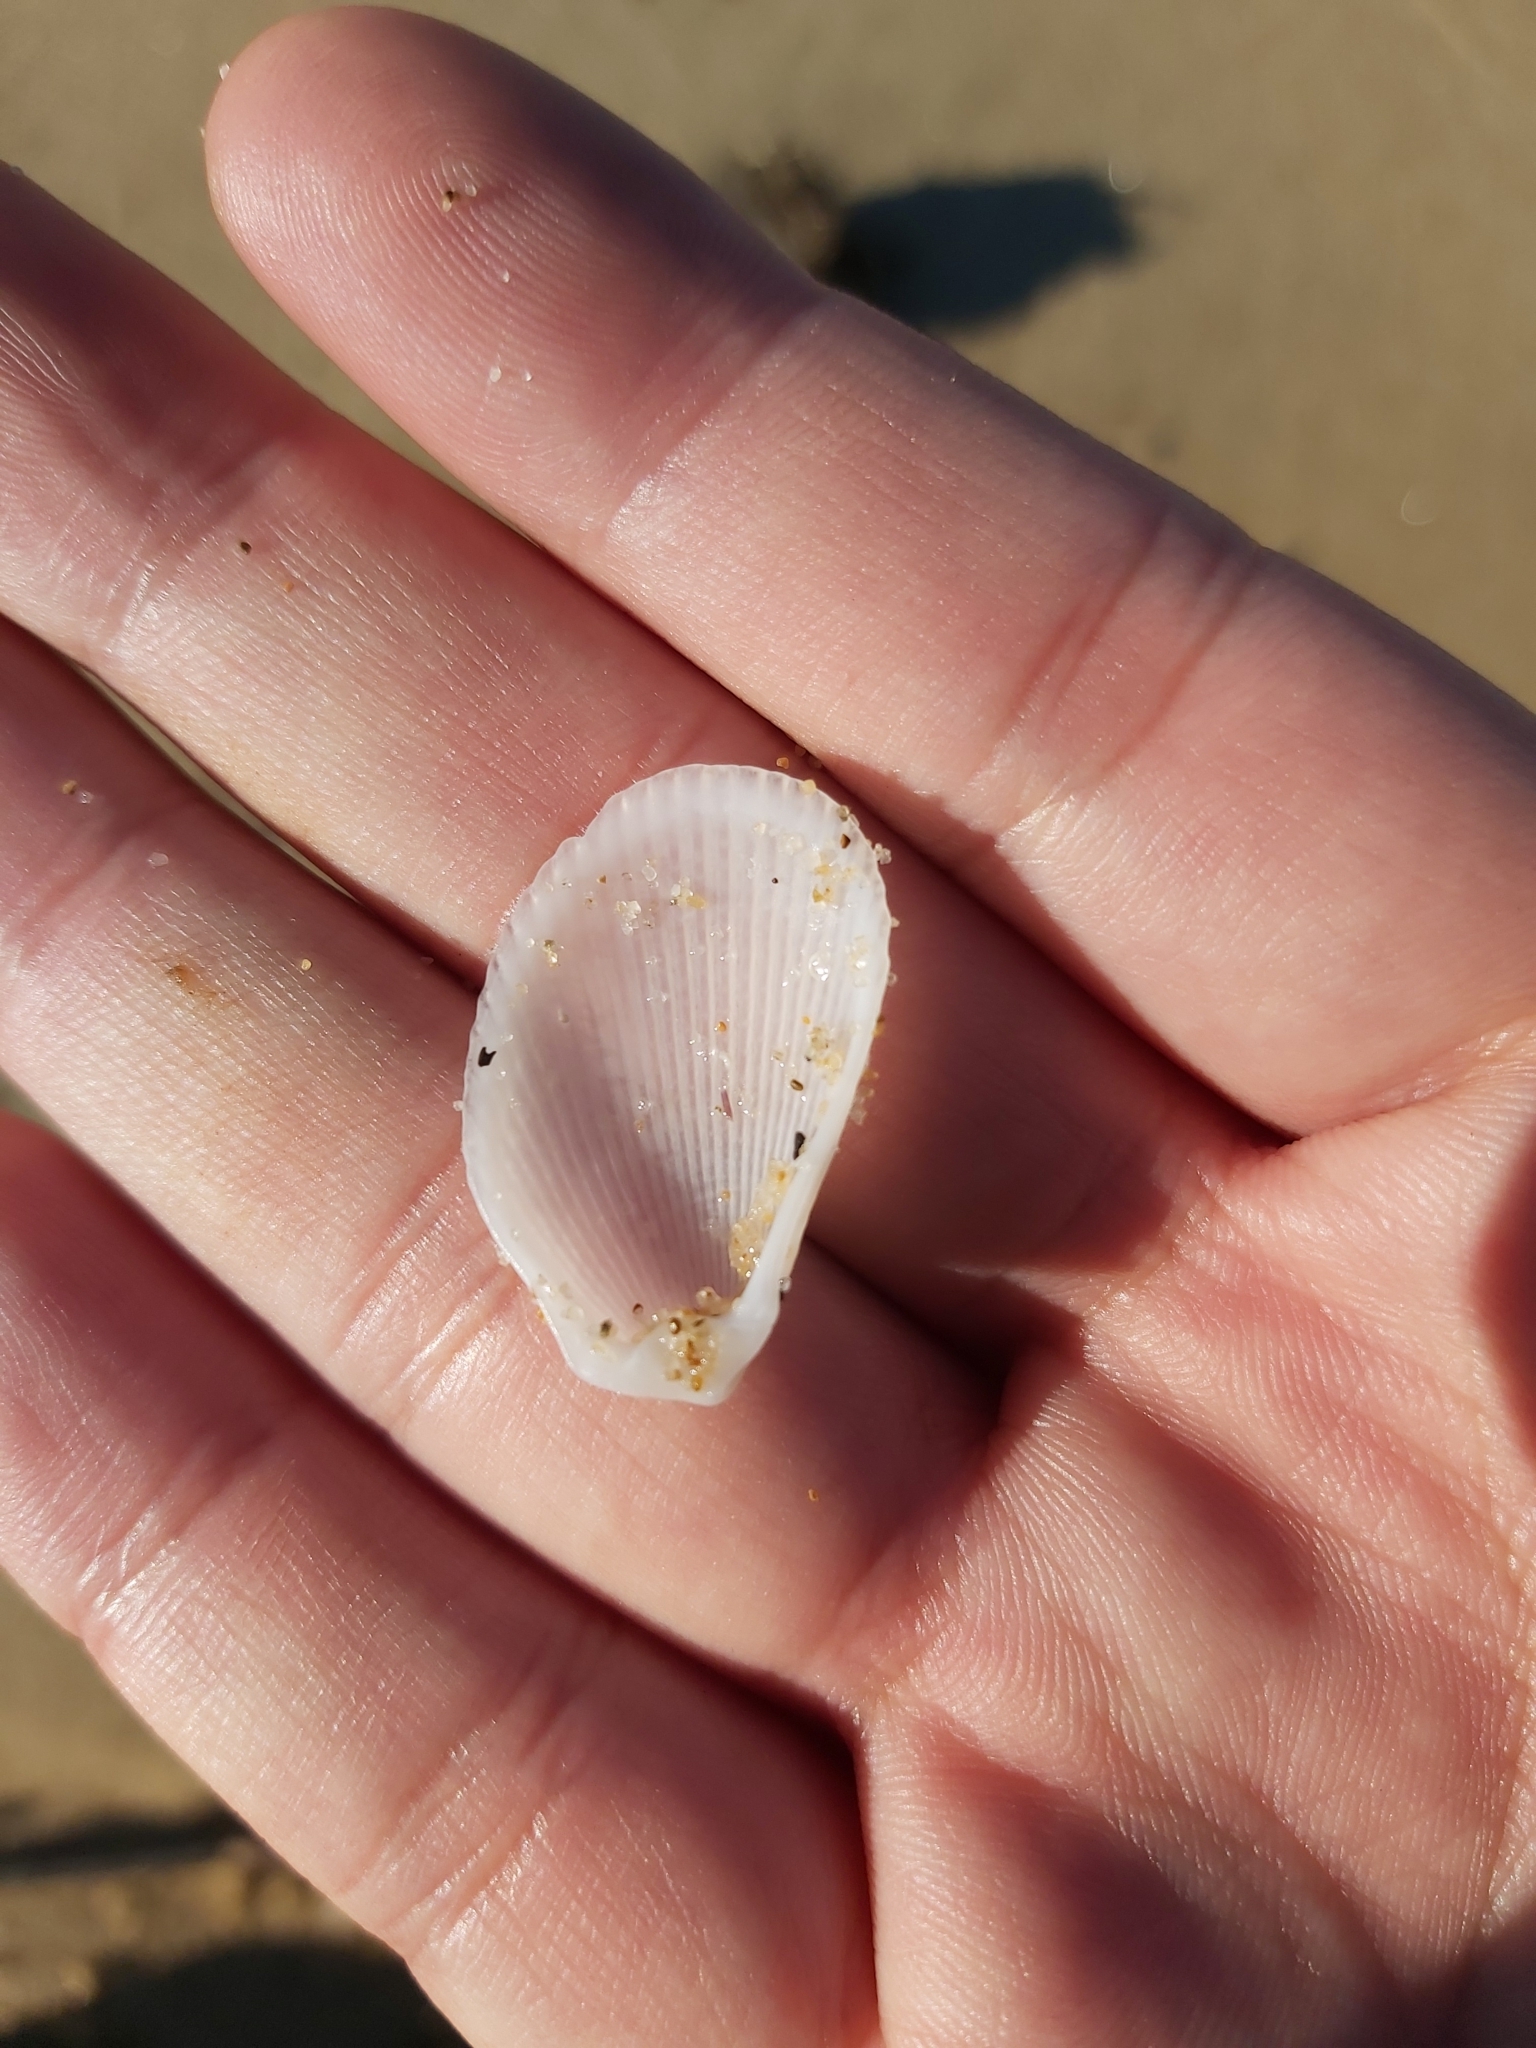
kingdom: Animalia
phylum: Mollusca
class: Bivalvia
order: Limida
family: Limidae
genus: Lima
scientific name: Lima nimbifer
